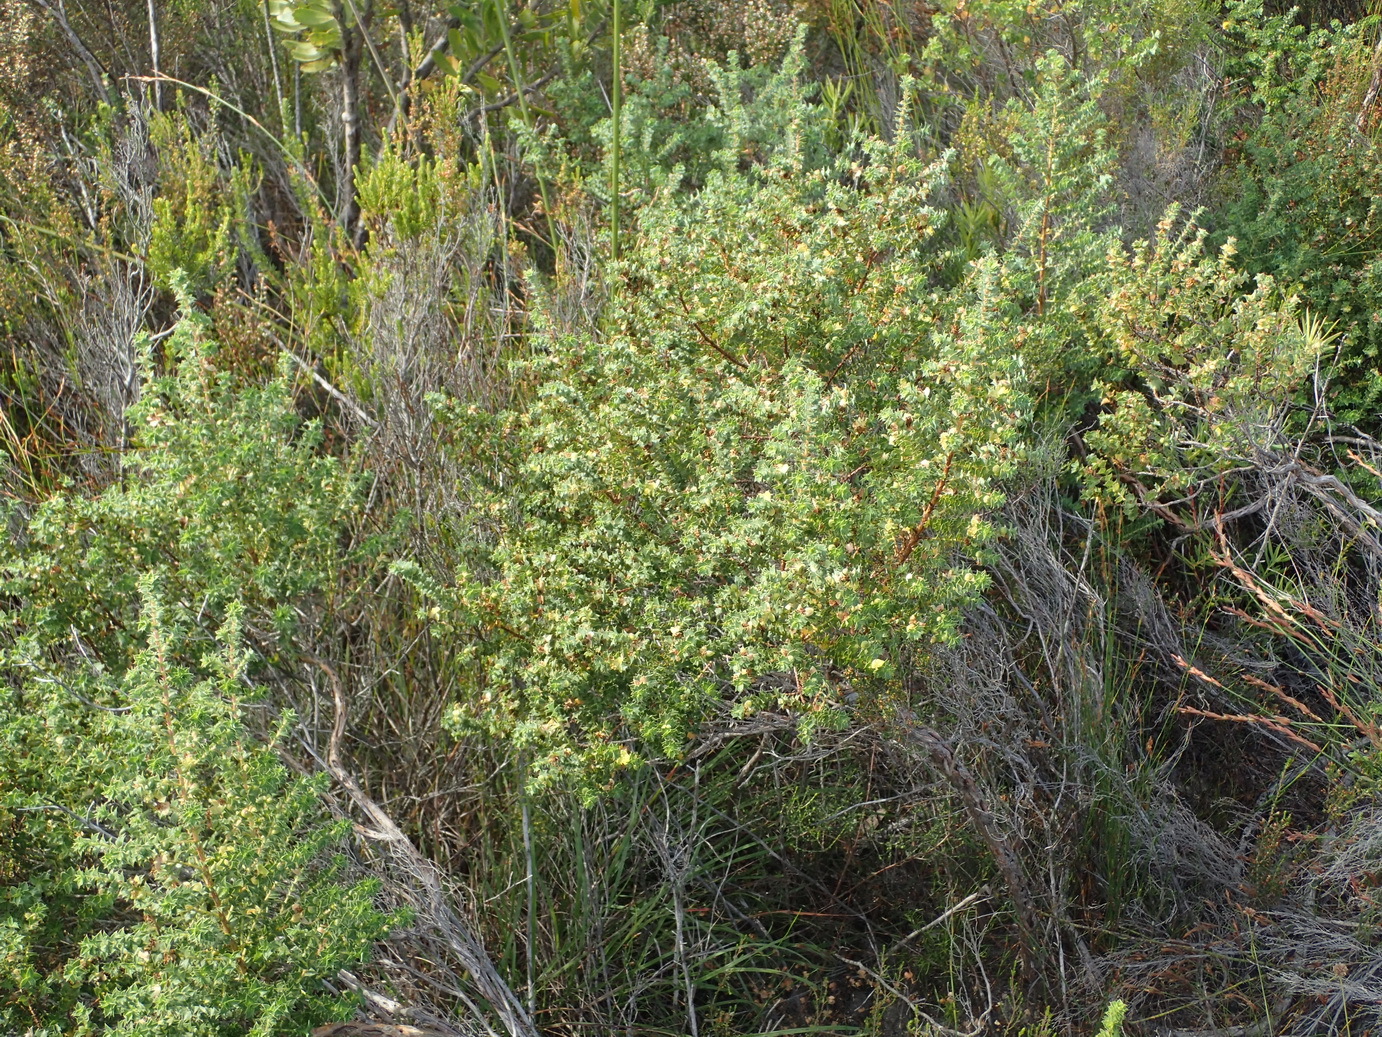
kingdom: Plantae
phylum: Tracheophyta
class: Magnoliopsida
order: Rosales
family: Rosaceae
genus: Cliffortia
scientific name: Cliffortia schlechteri
